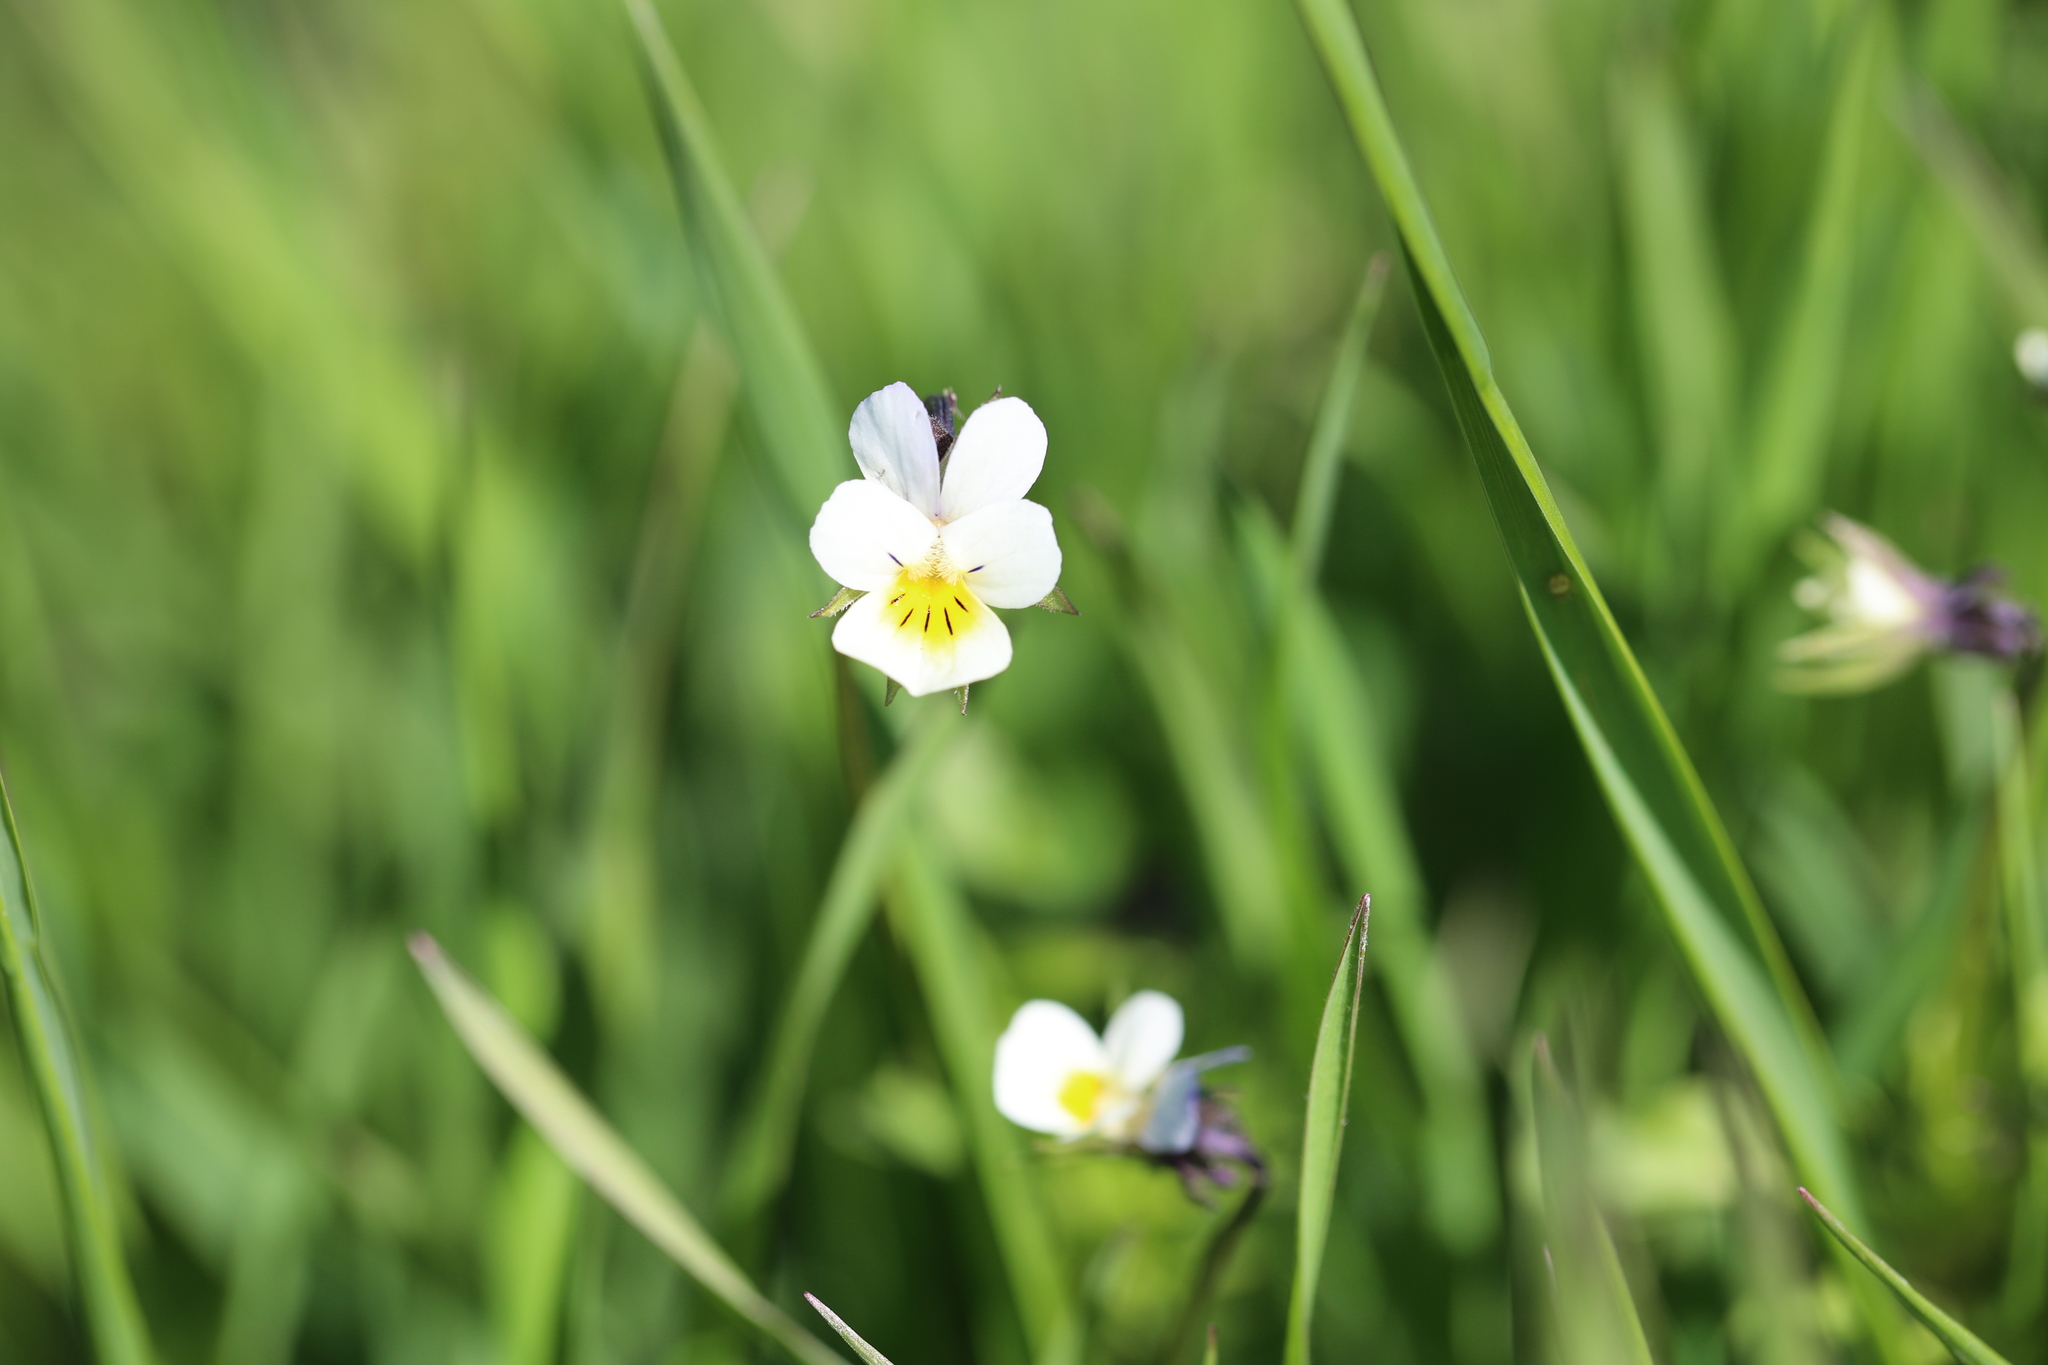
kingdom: Plantae
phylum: Tracheophyta
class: Magnoliopsida
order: Malpighiales
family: Violaceae
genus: Viola
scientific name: Viola arvensis
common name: Field pansy
